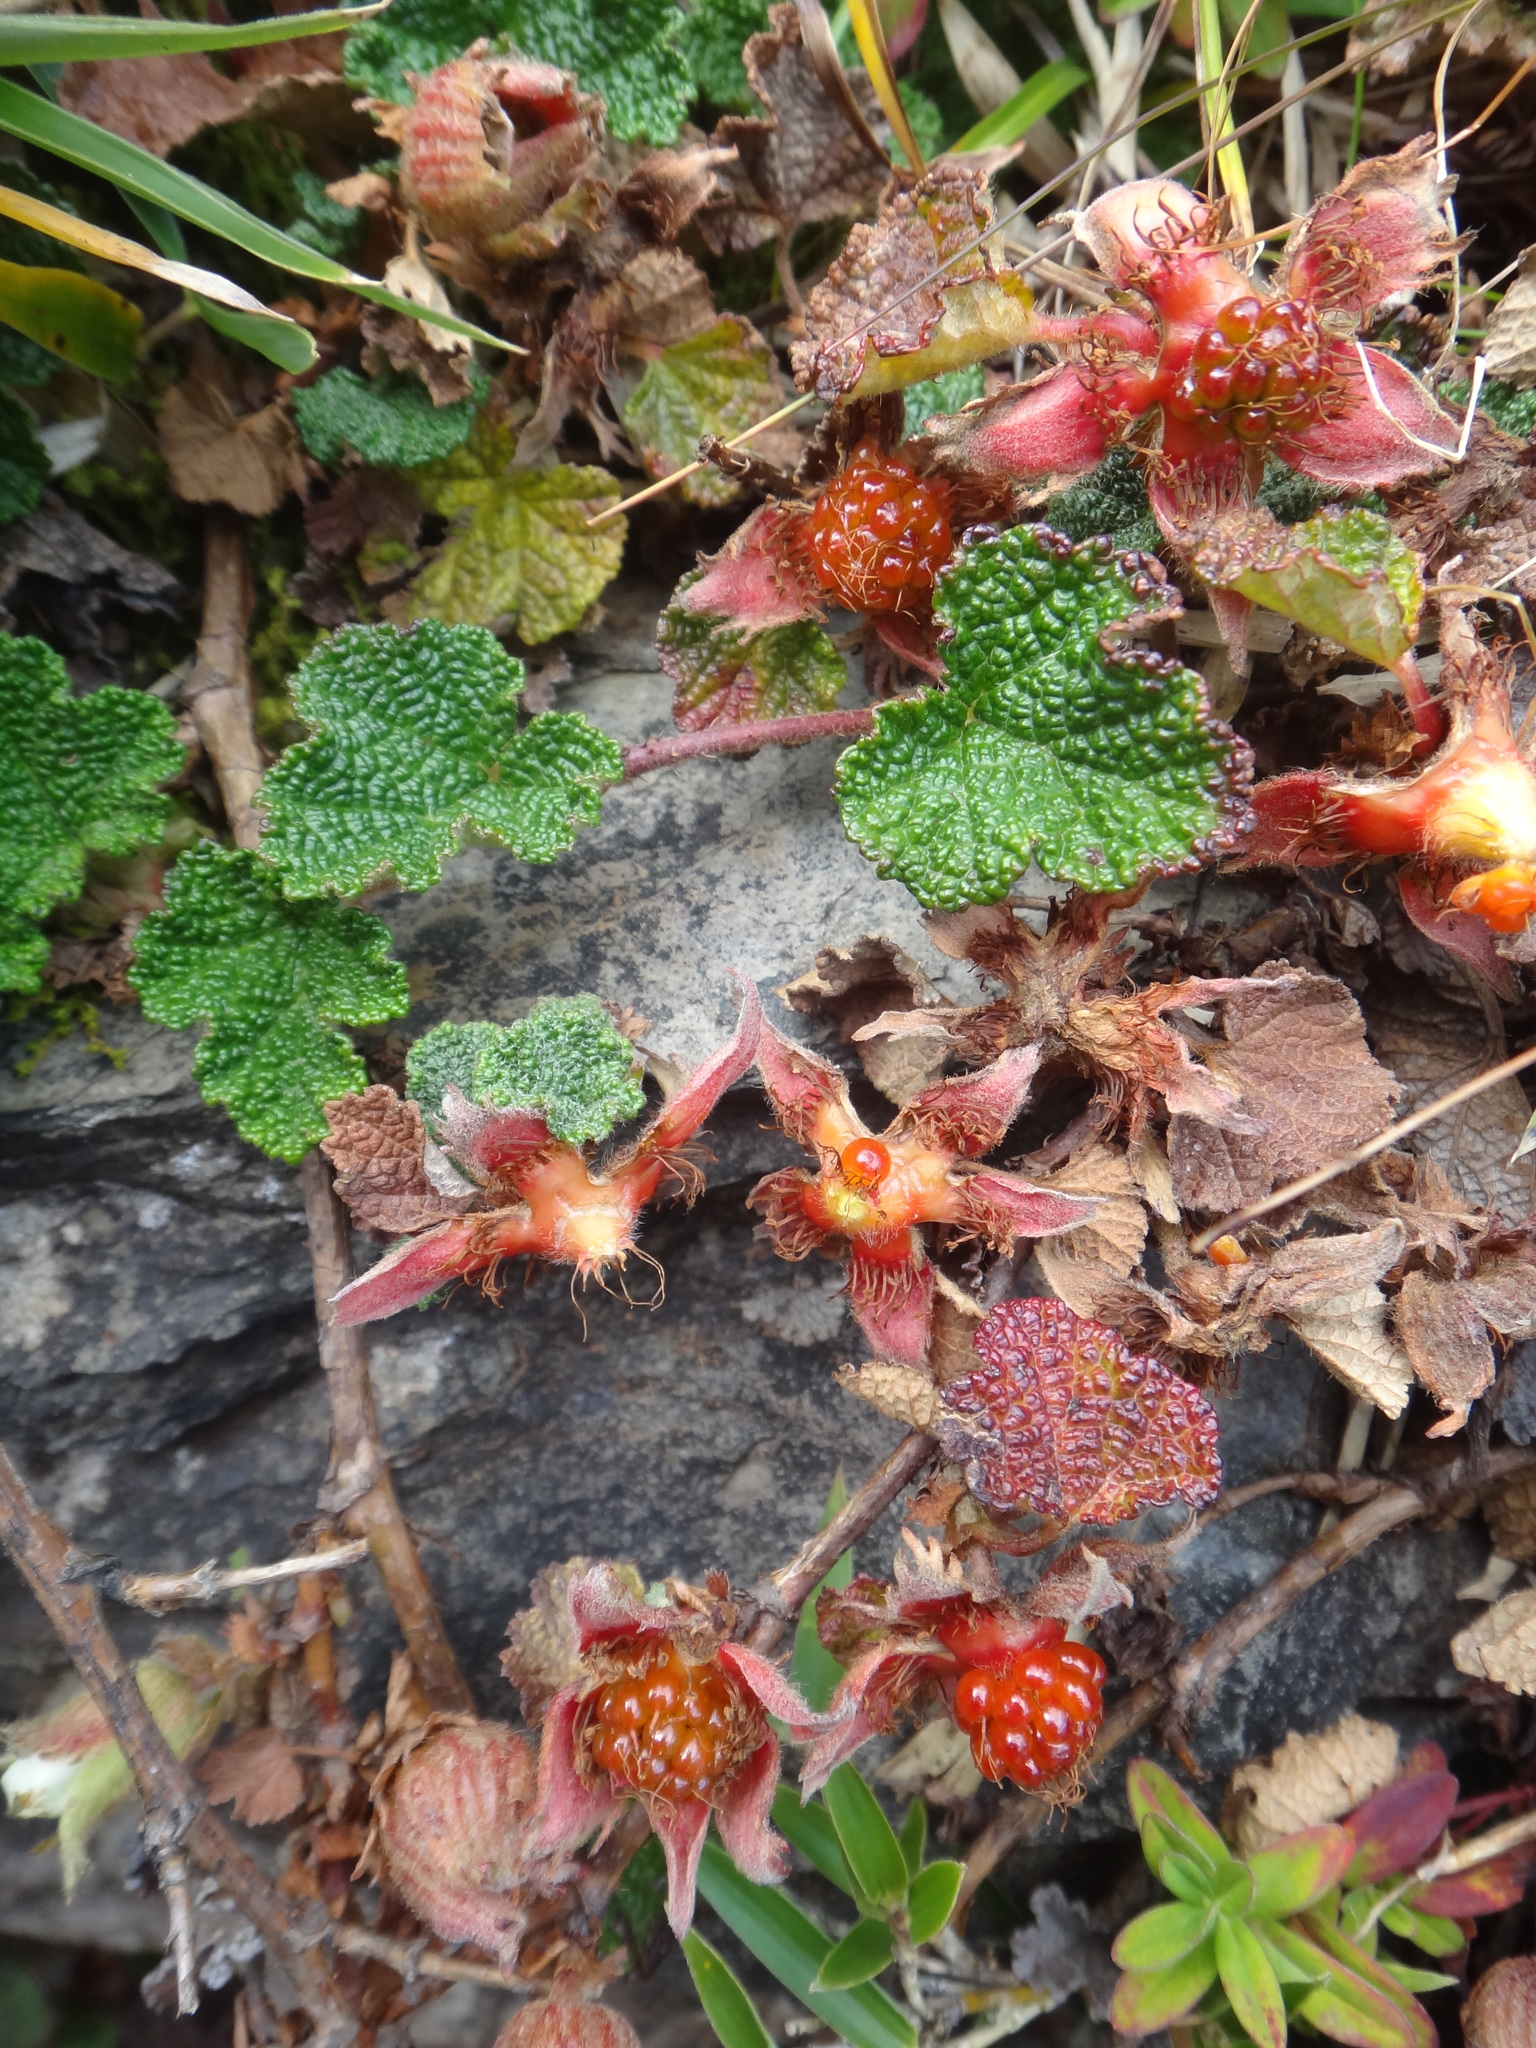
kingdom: Plantae
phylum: Tracheophyta
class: Magnoliopsida
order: Rosales
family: Rosaceae
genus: Rubus
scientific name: Rubus rolfei
